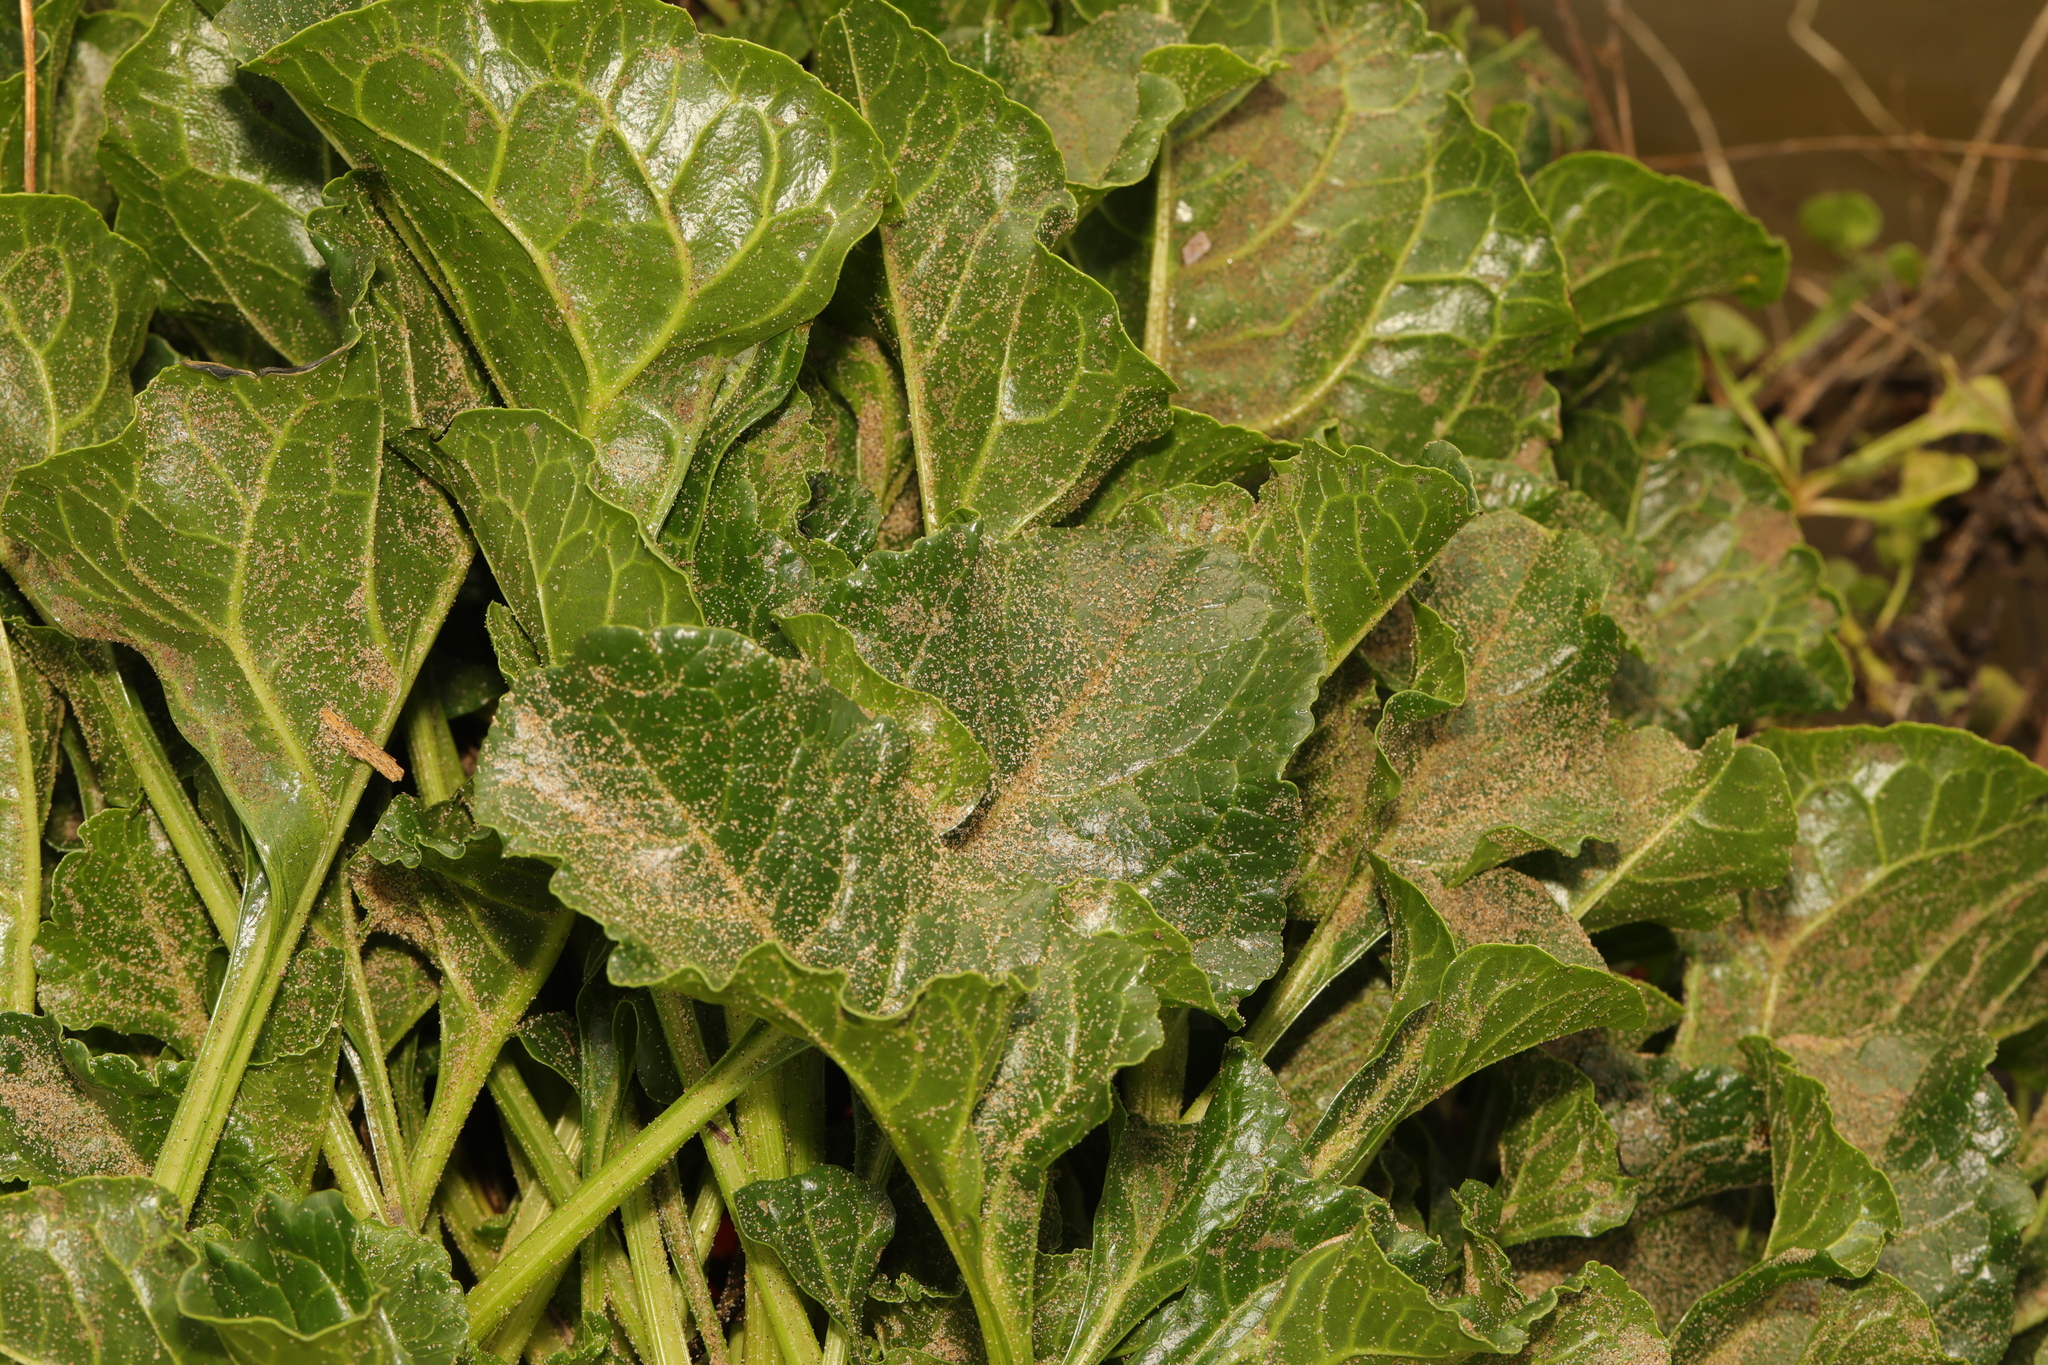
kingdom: Plantae
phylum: Tracheophyta
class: Magnoliopsida
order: Caryophyllales
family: Amaranthaceae
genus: Beta
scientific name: Beta vulgaris
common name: Beet
